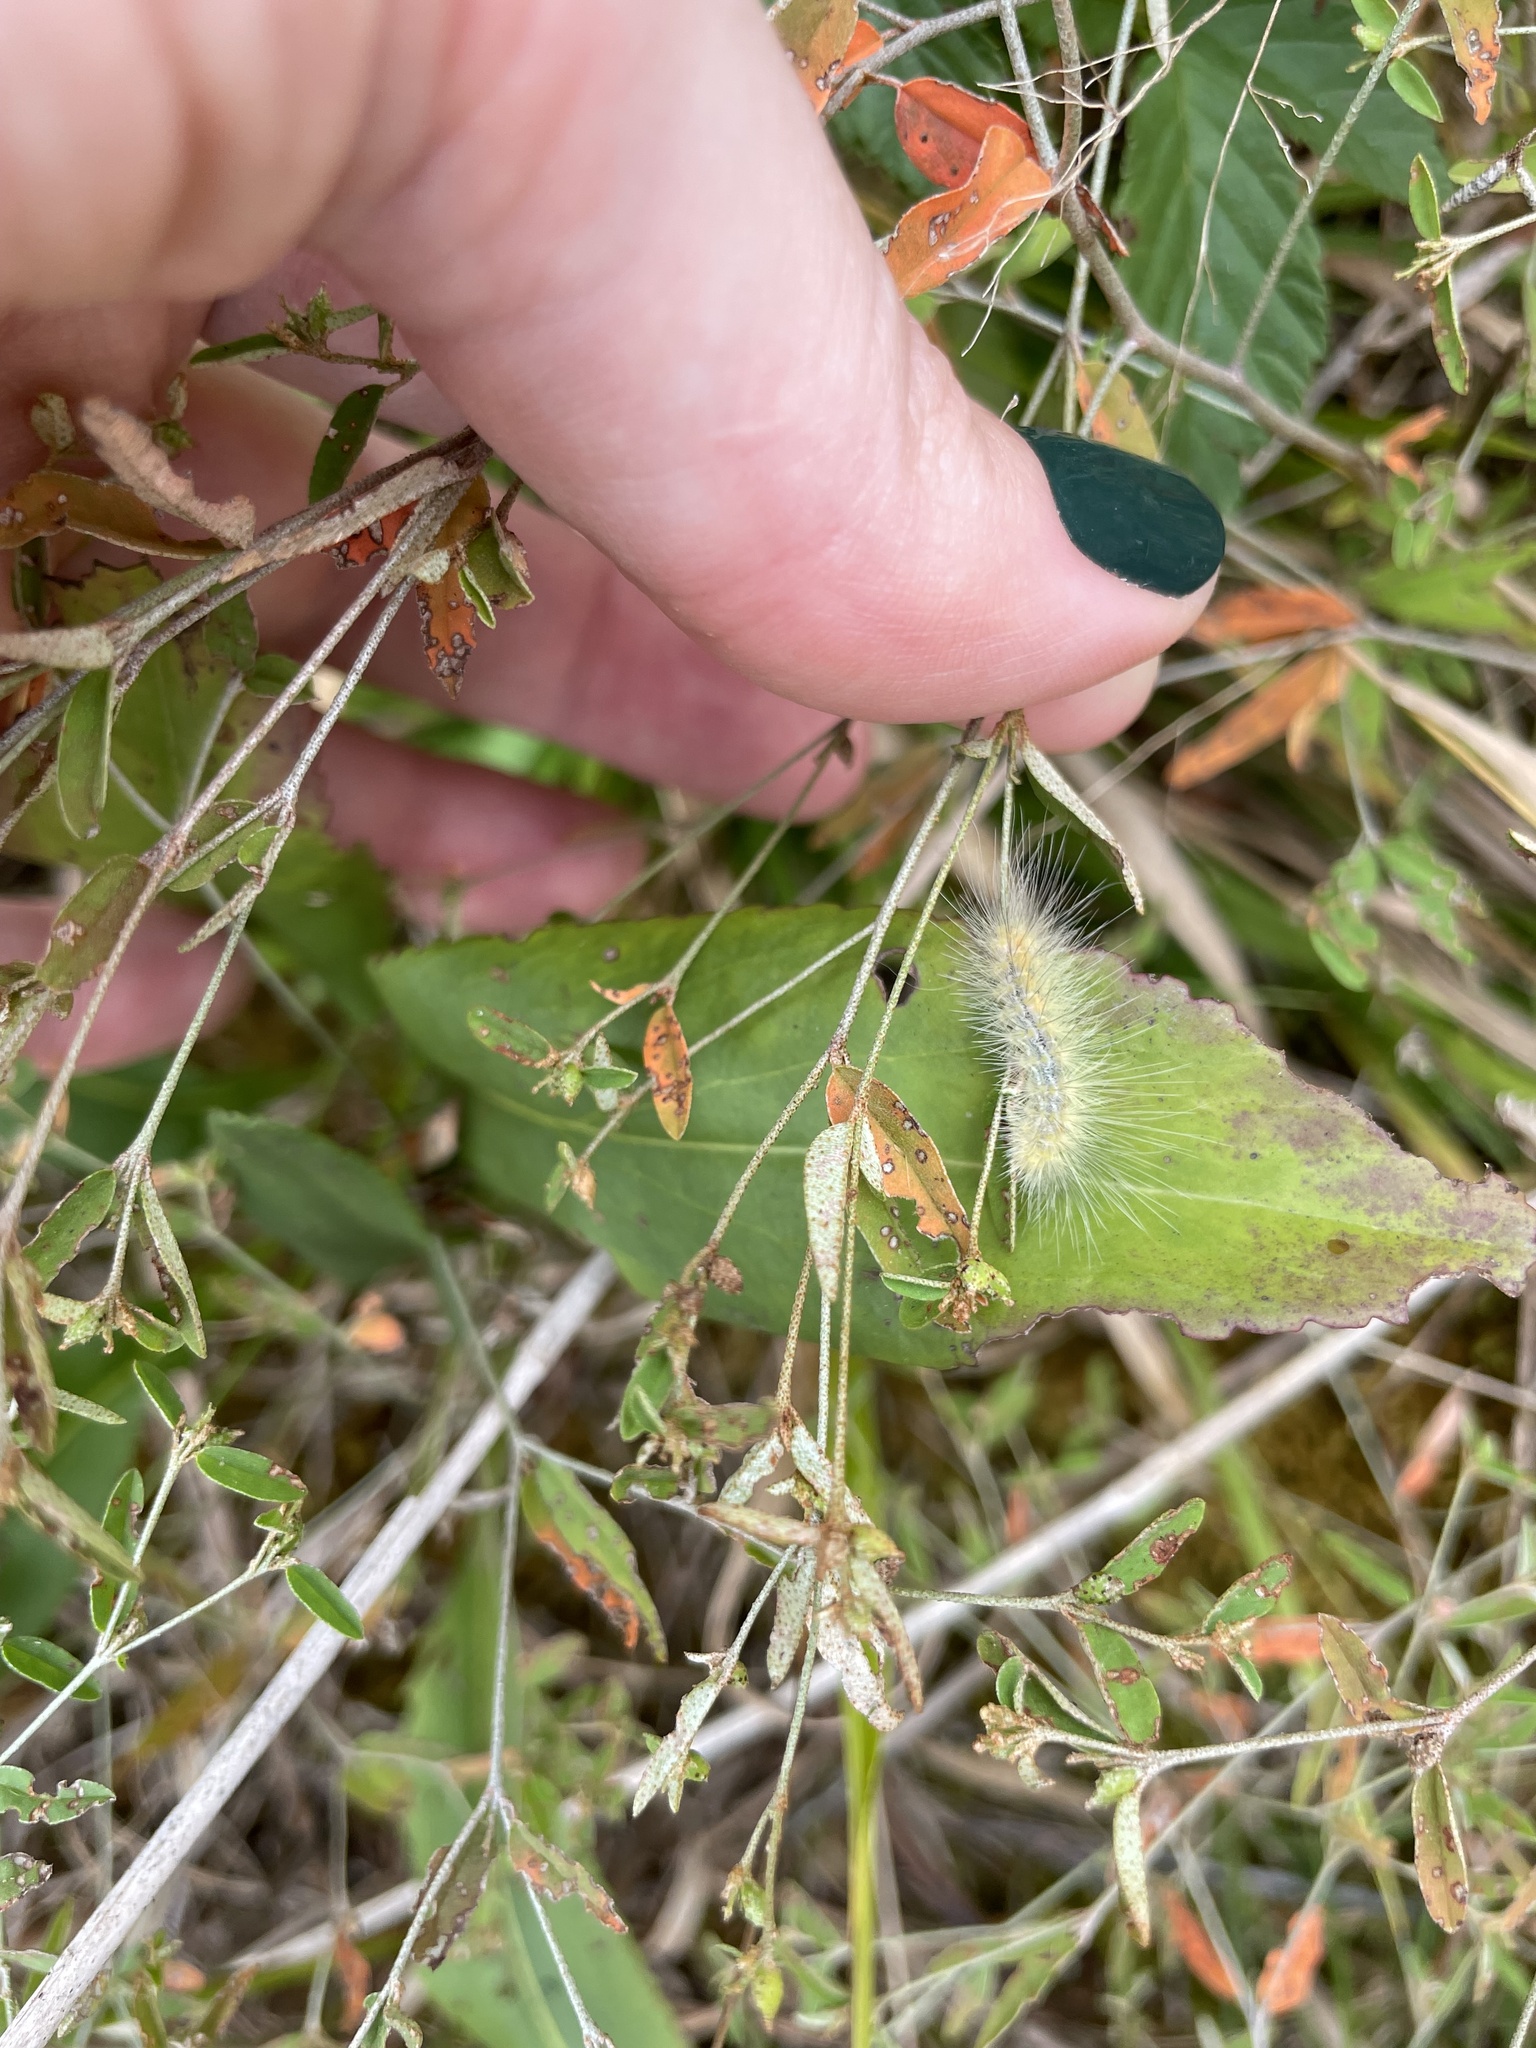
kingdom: Animalia
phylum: Arthropoda
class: Insecta
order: Lepidoptera
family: Erebidae
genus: Spilosoma
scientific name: Spilosoma virginica
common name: Virginia tiger moth
